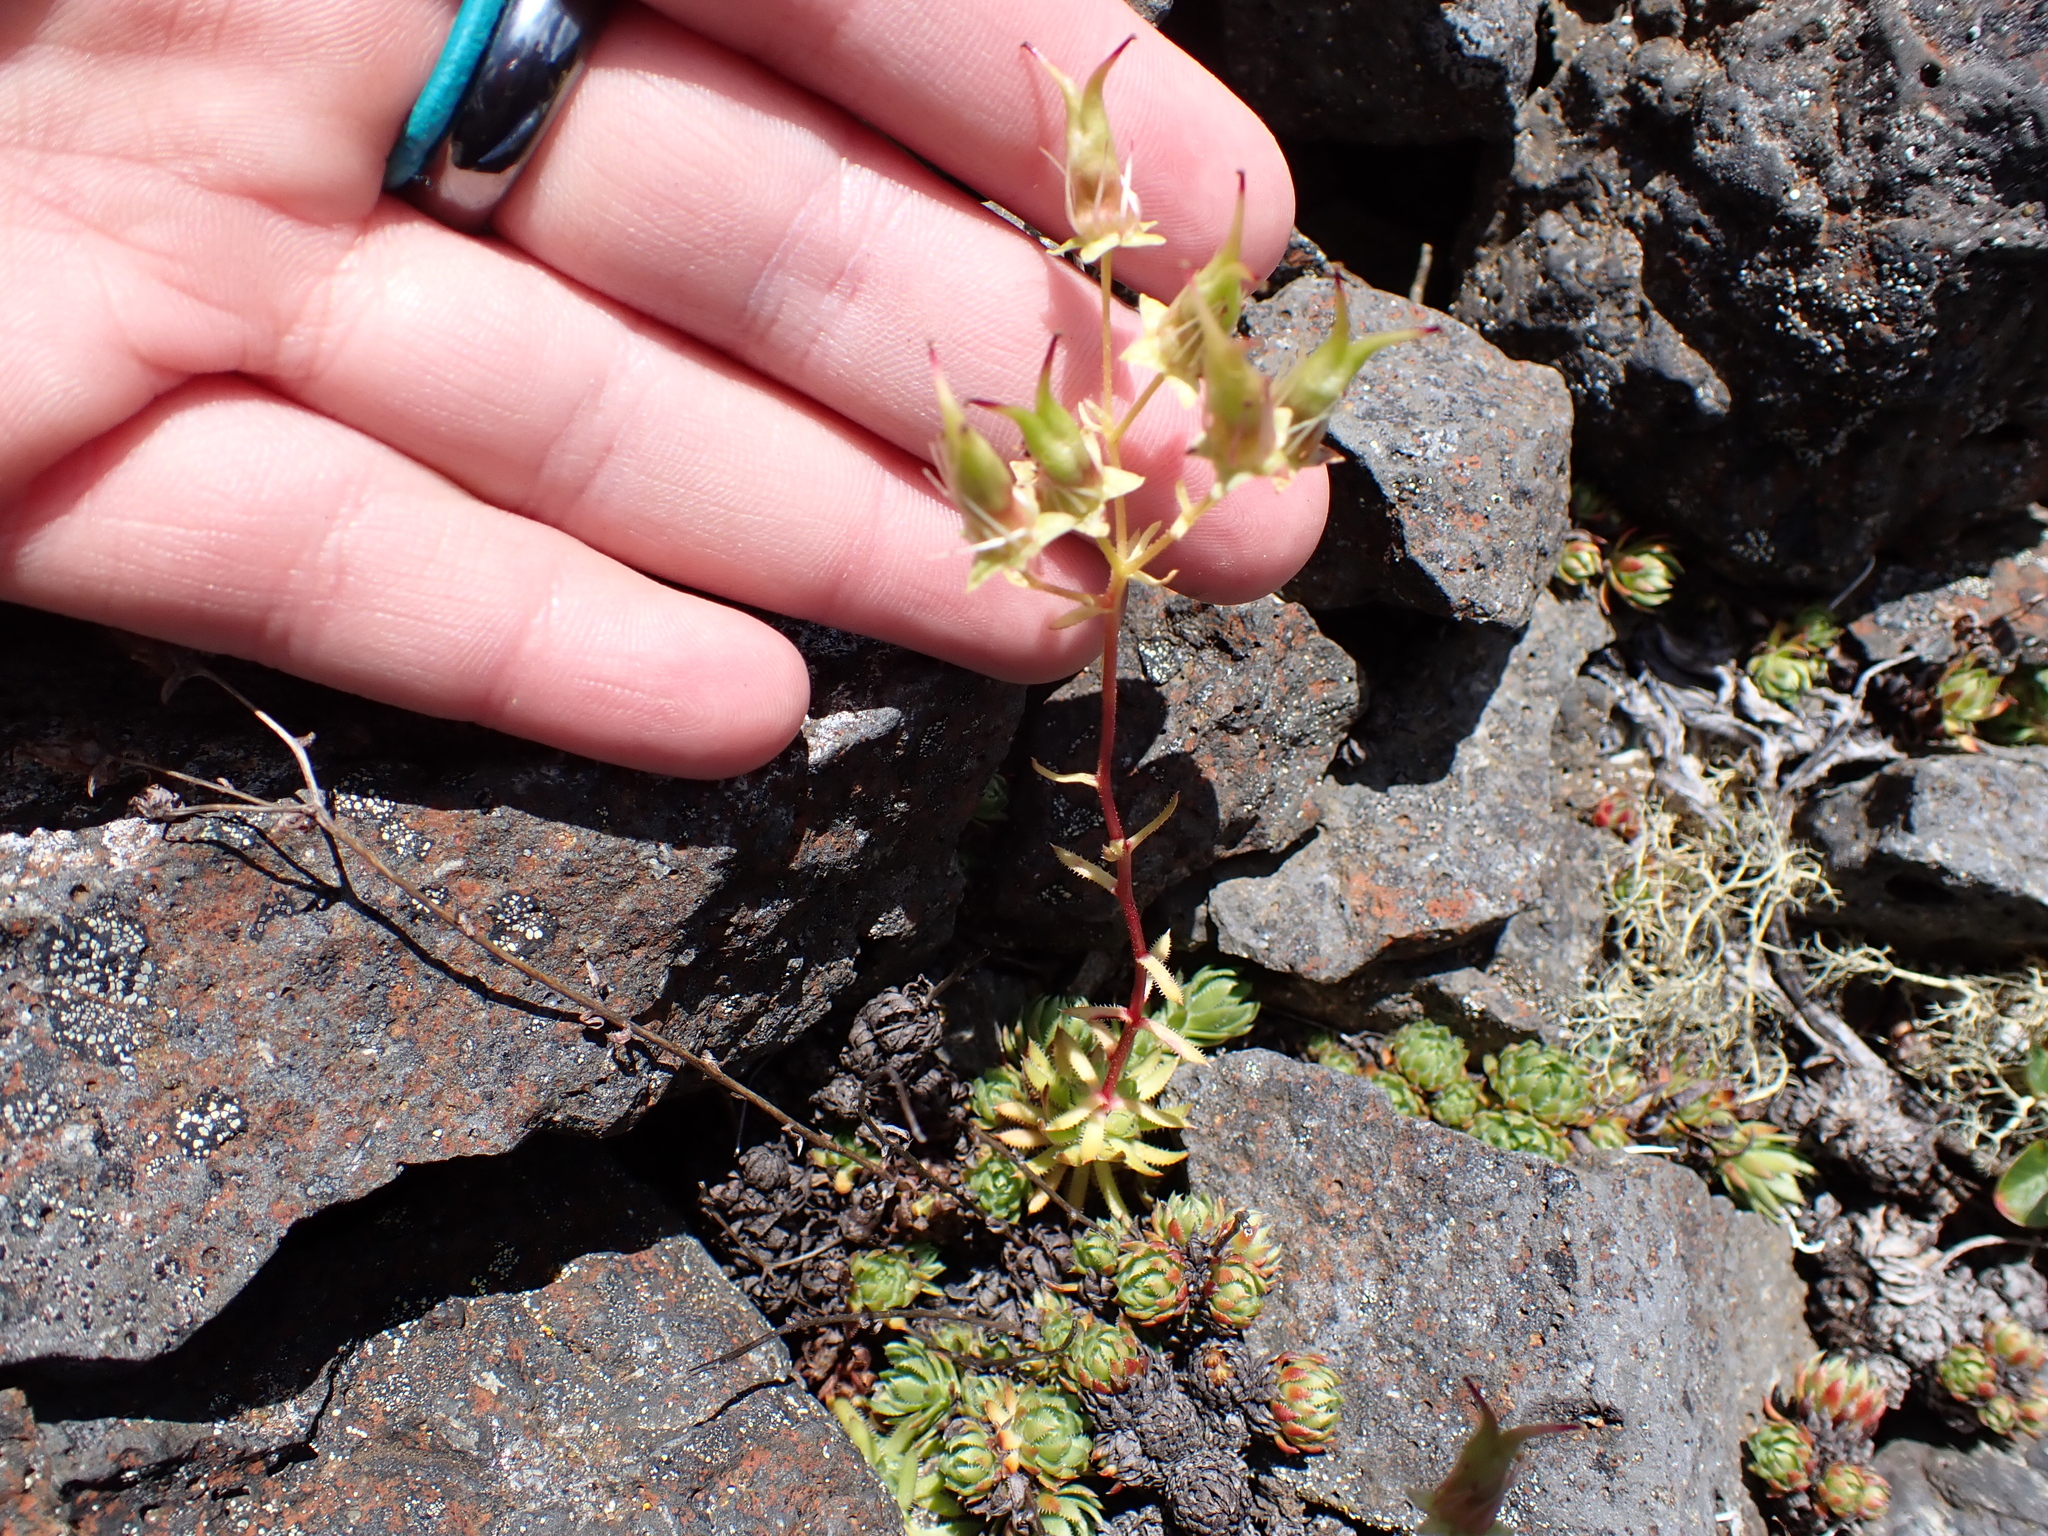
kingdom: Plantae
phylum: Tracheophyta
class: Magnoliopsida
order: Saxifragales
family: Saxifragaceae
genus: Saxifraga
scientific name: Saxifraga bronchialis
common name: Matted saxifrage
